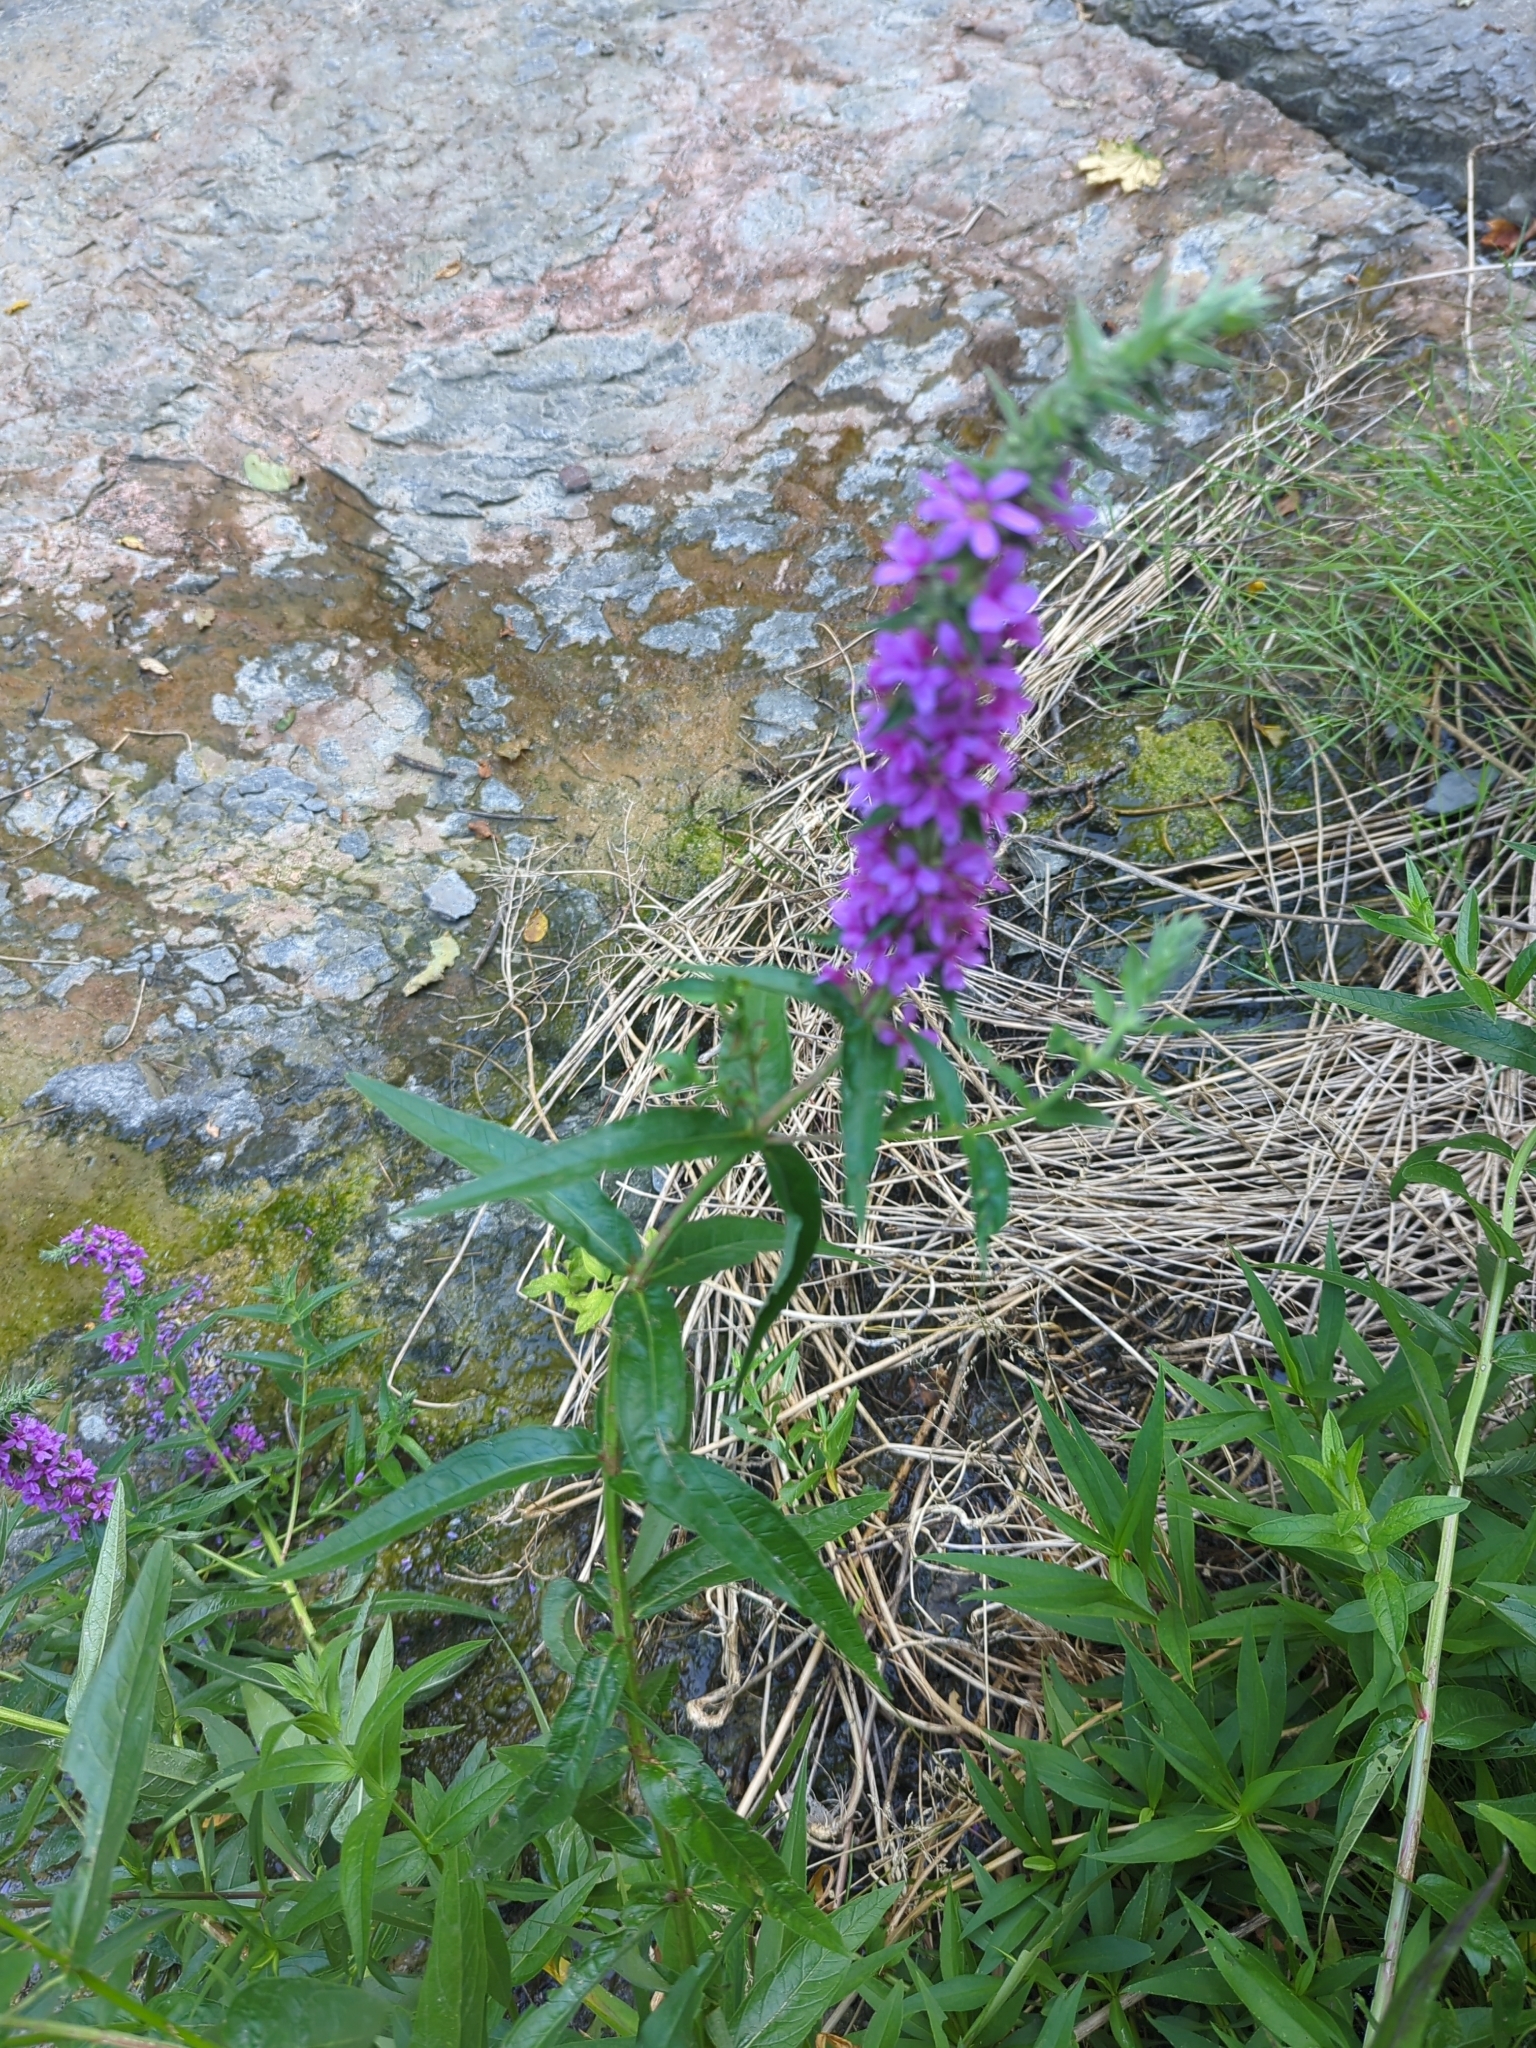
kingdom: Plantae
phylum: Tracheophyta
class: Magnoliopsida
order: Myrtales
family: Lythraceae
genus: Lythrum
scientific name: Lythrum salicaria
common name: Purple loosestrife
